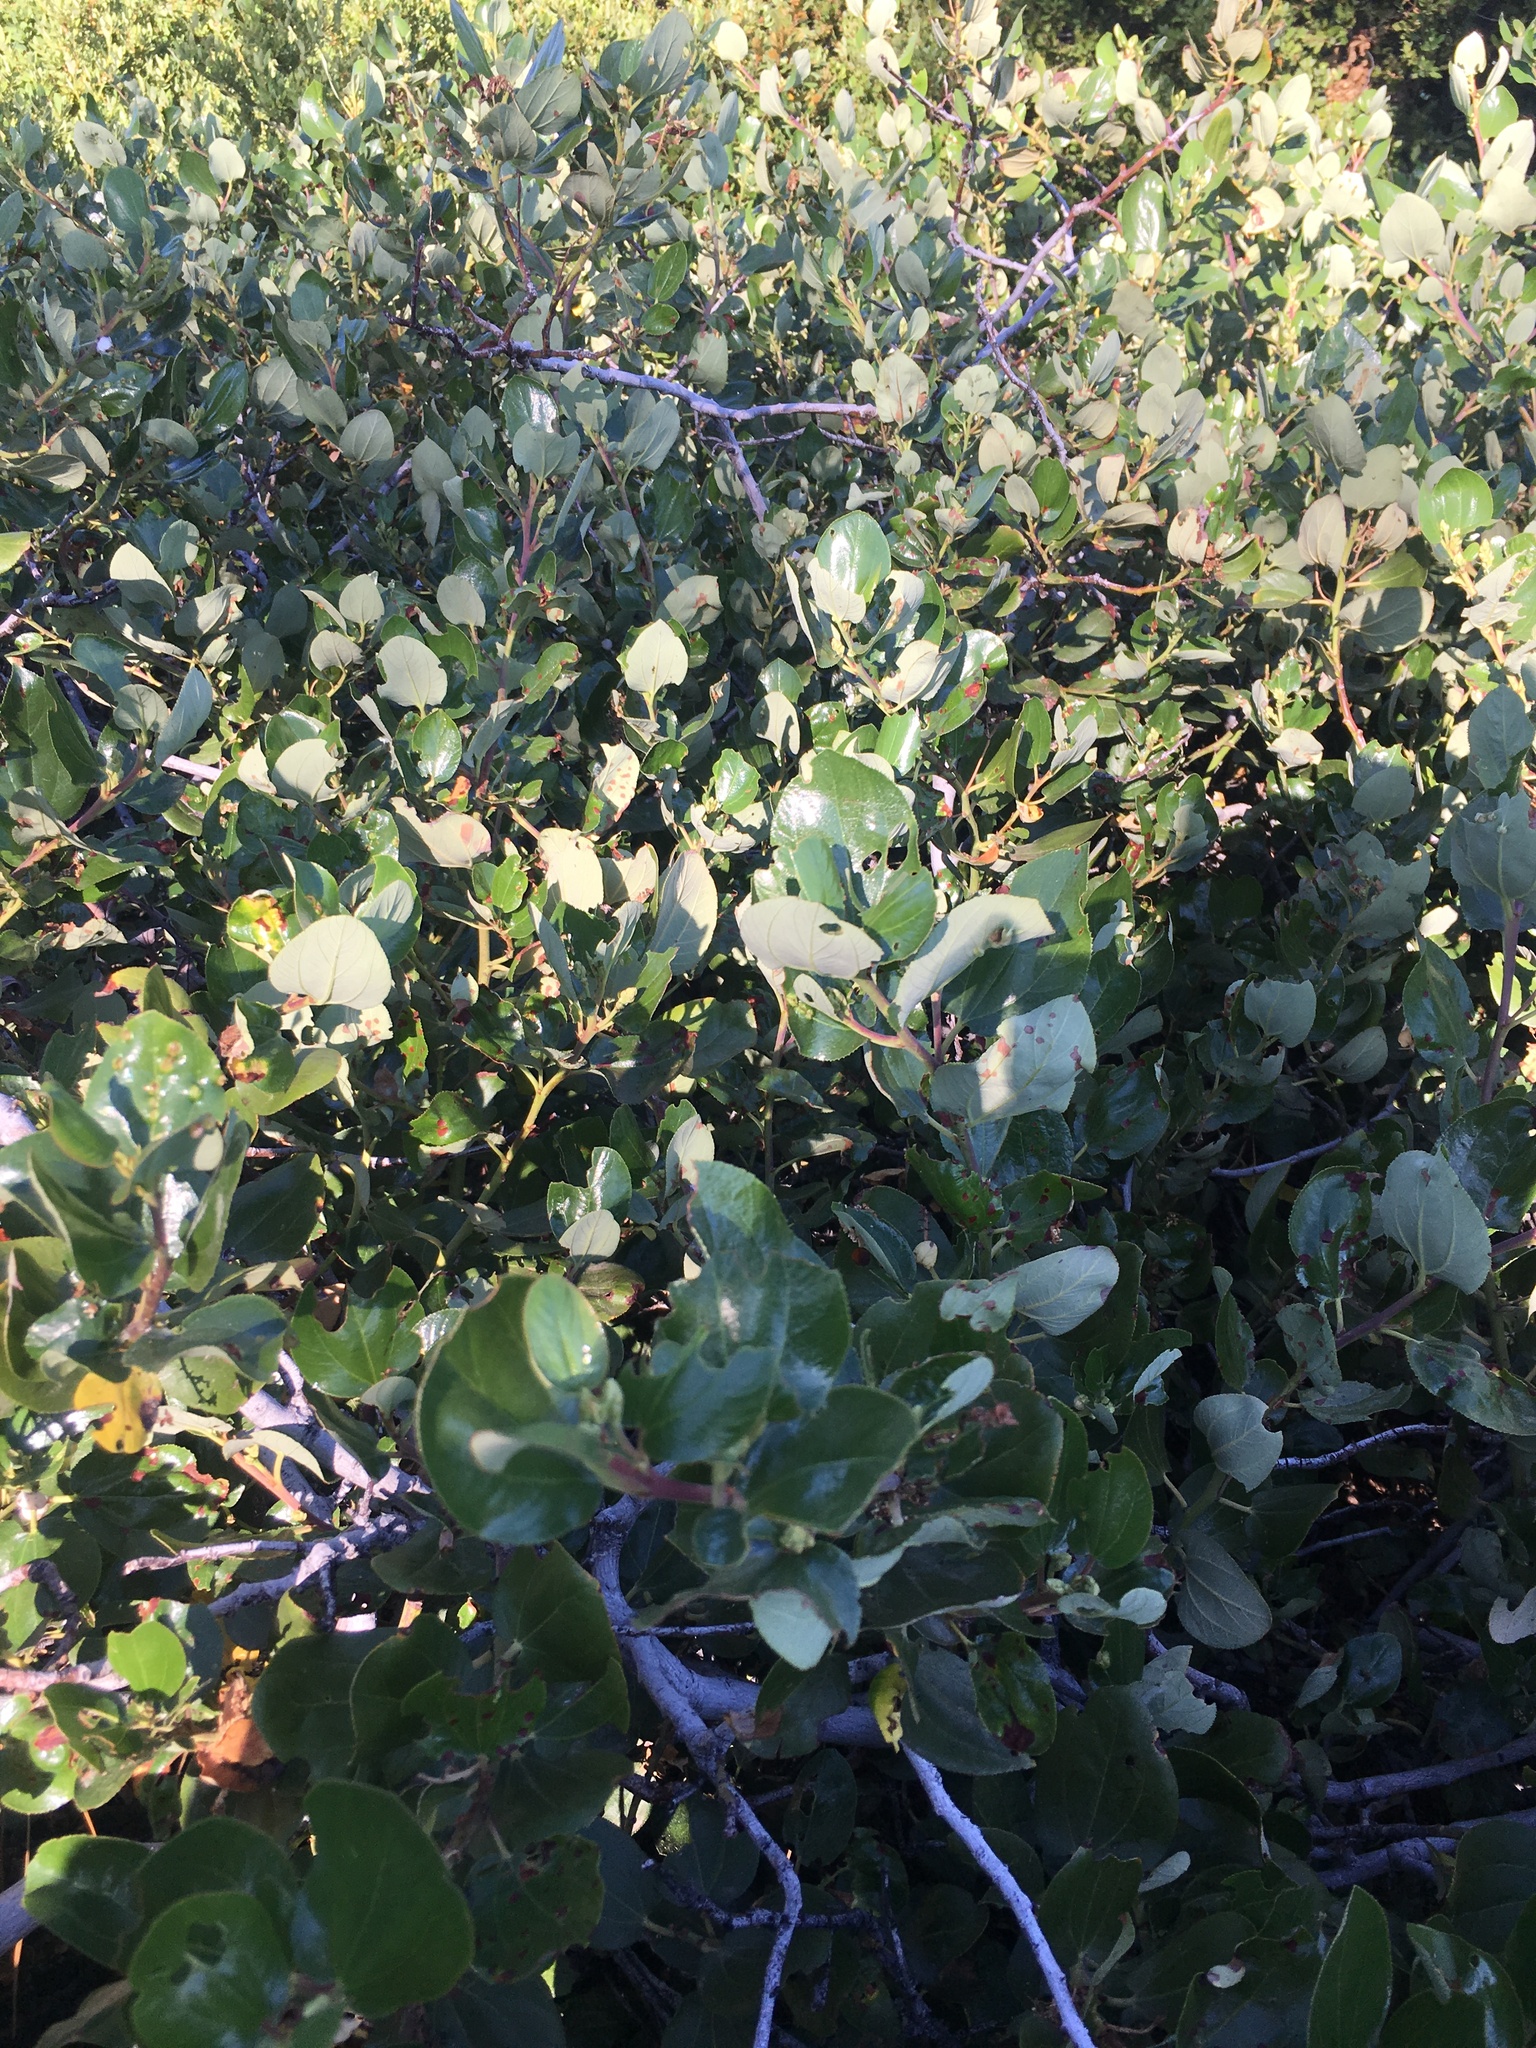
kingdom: Plantae
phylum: Tracheophyta
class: Magnoliopsida
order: Rosales
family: Rhamnaceae
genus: Ceanothus
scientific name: Ceanothus velutinus
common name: Snowbrush
